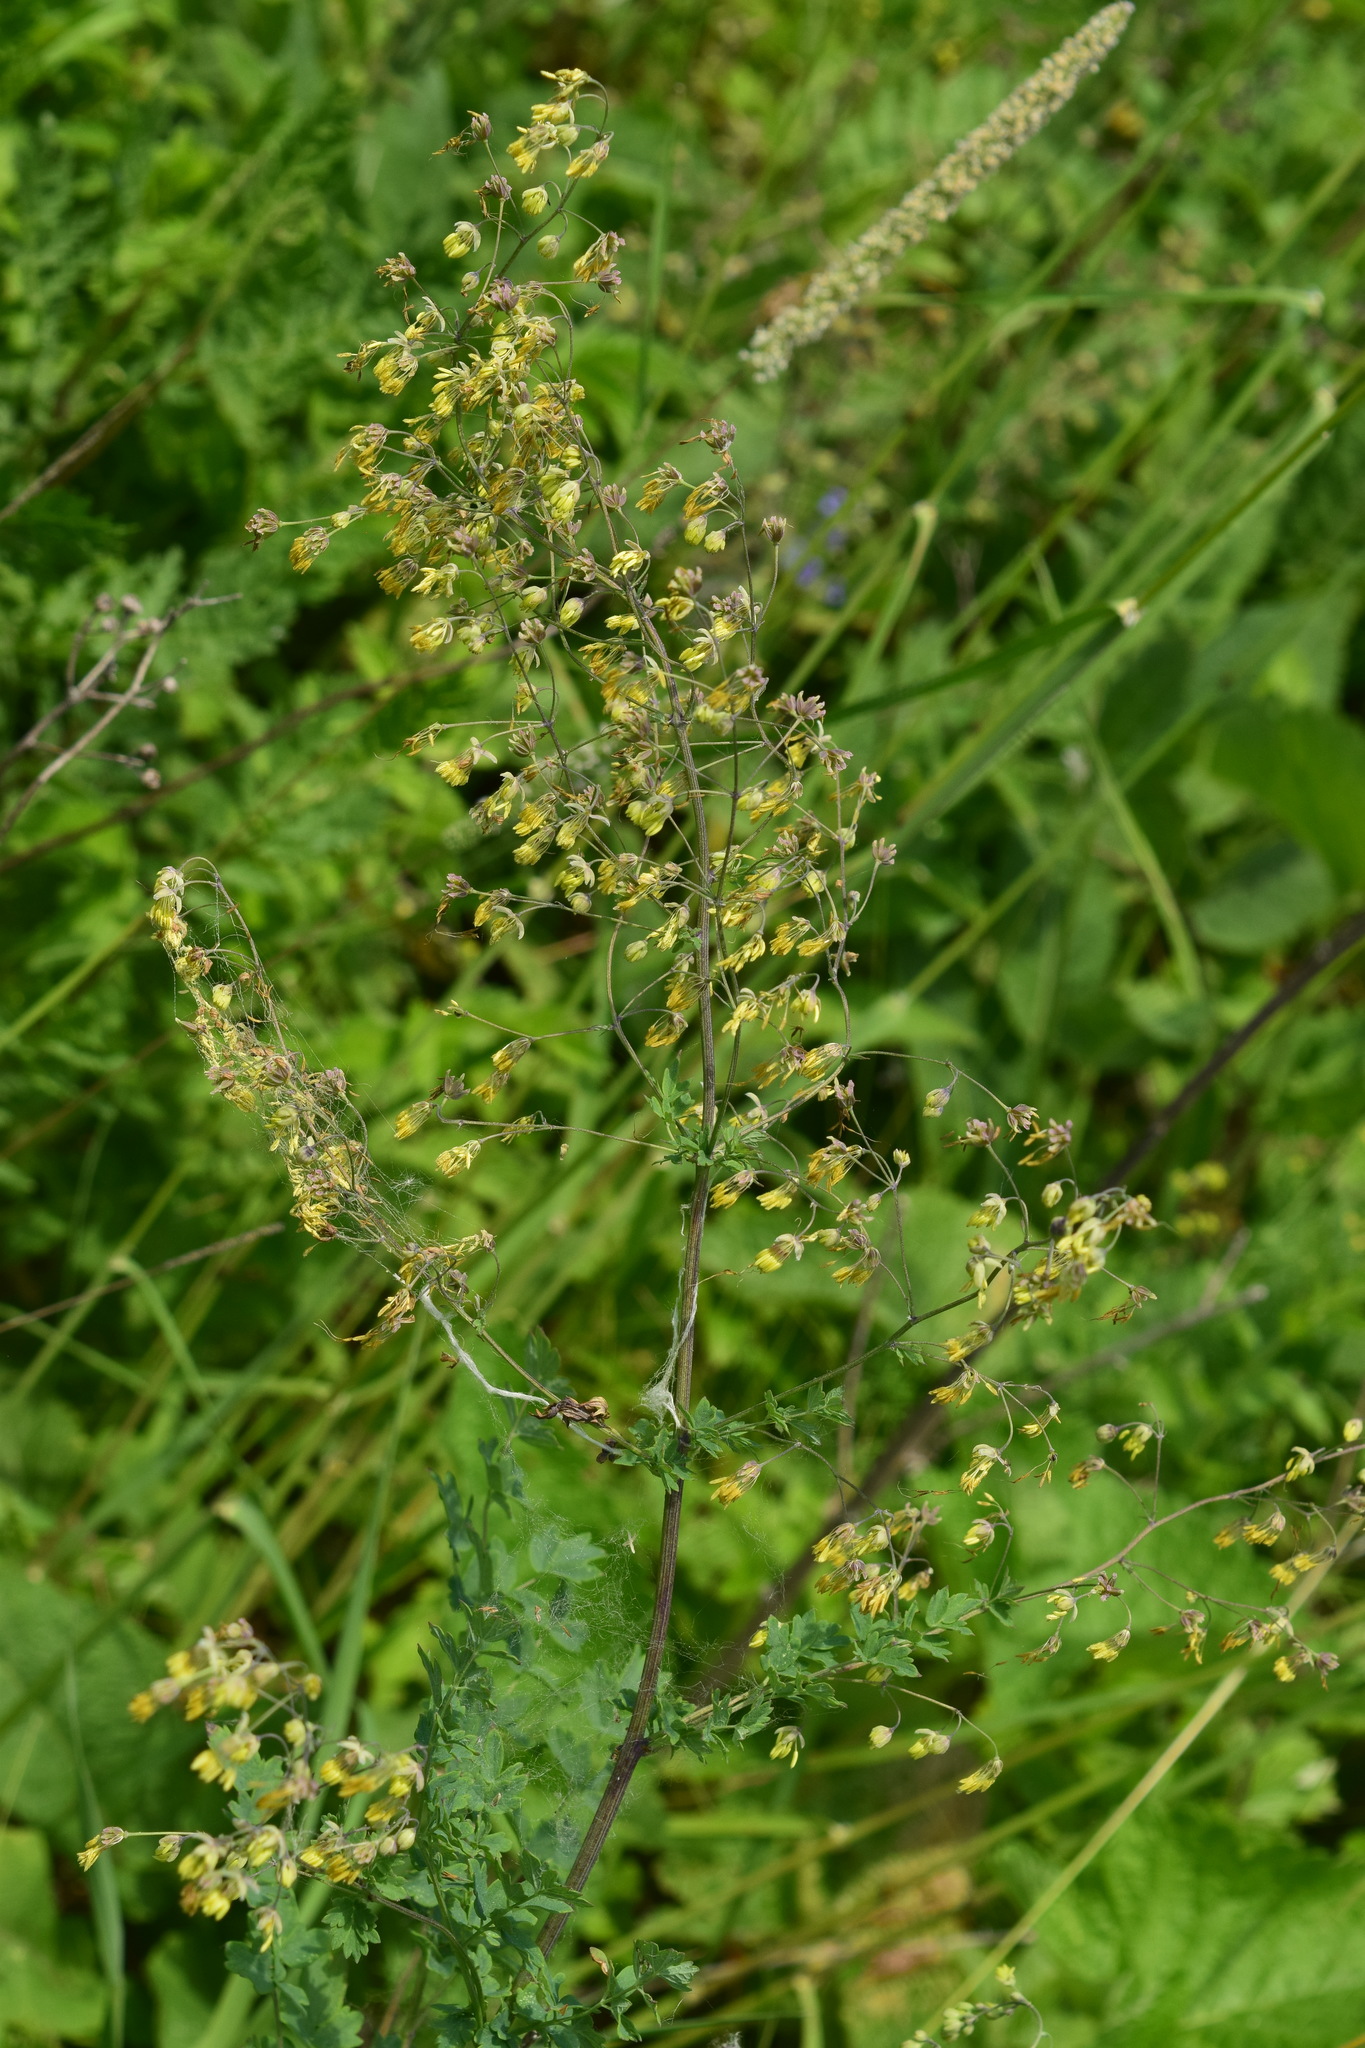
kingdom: Plantae
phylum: Tracheophyta
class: Magnoliopsida
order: Ranunculales
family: Ranunculaceae
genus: Thalictrum
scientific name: Thalictrum minus
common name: Lesser meadow-rue
